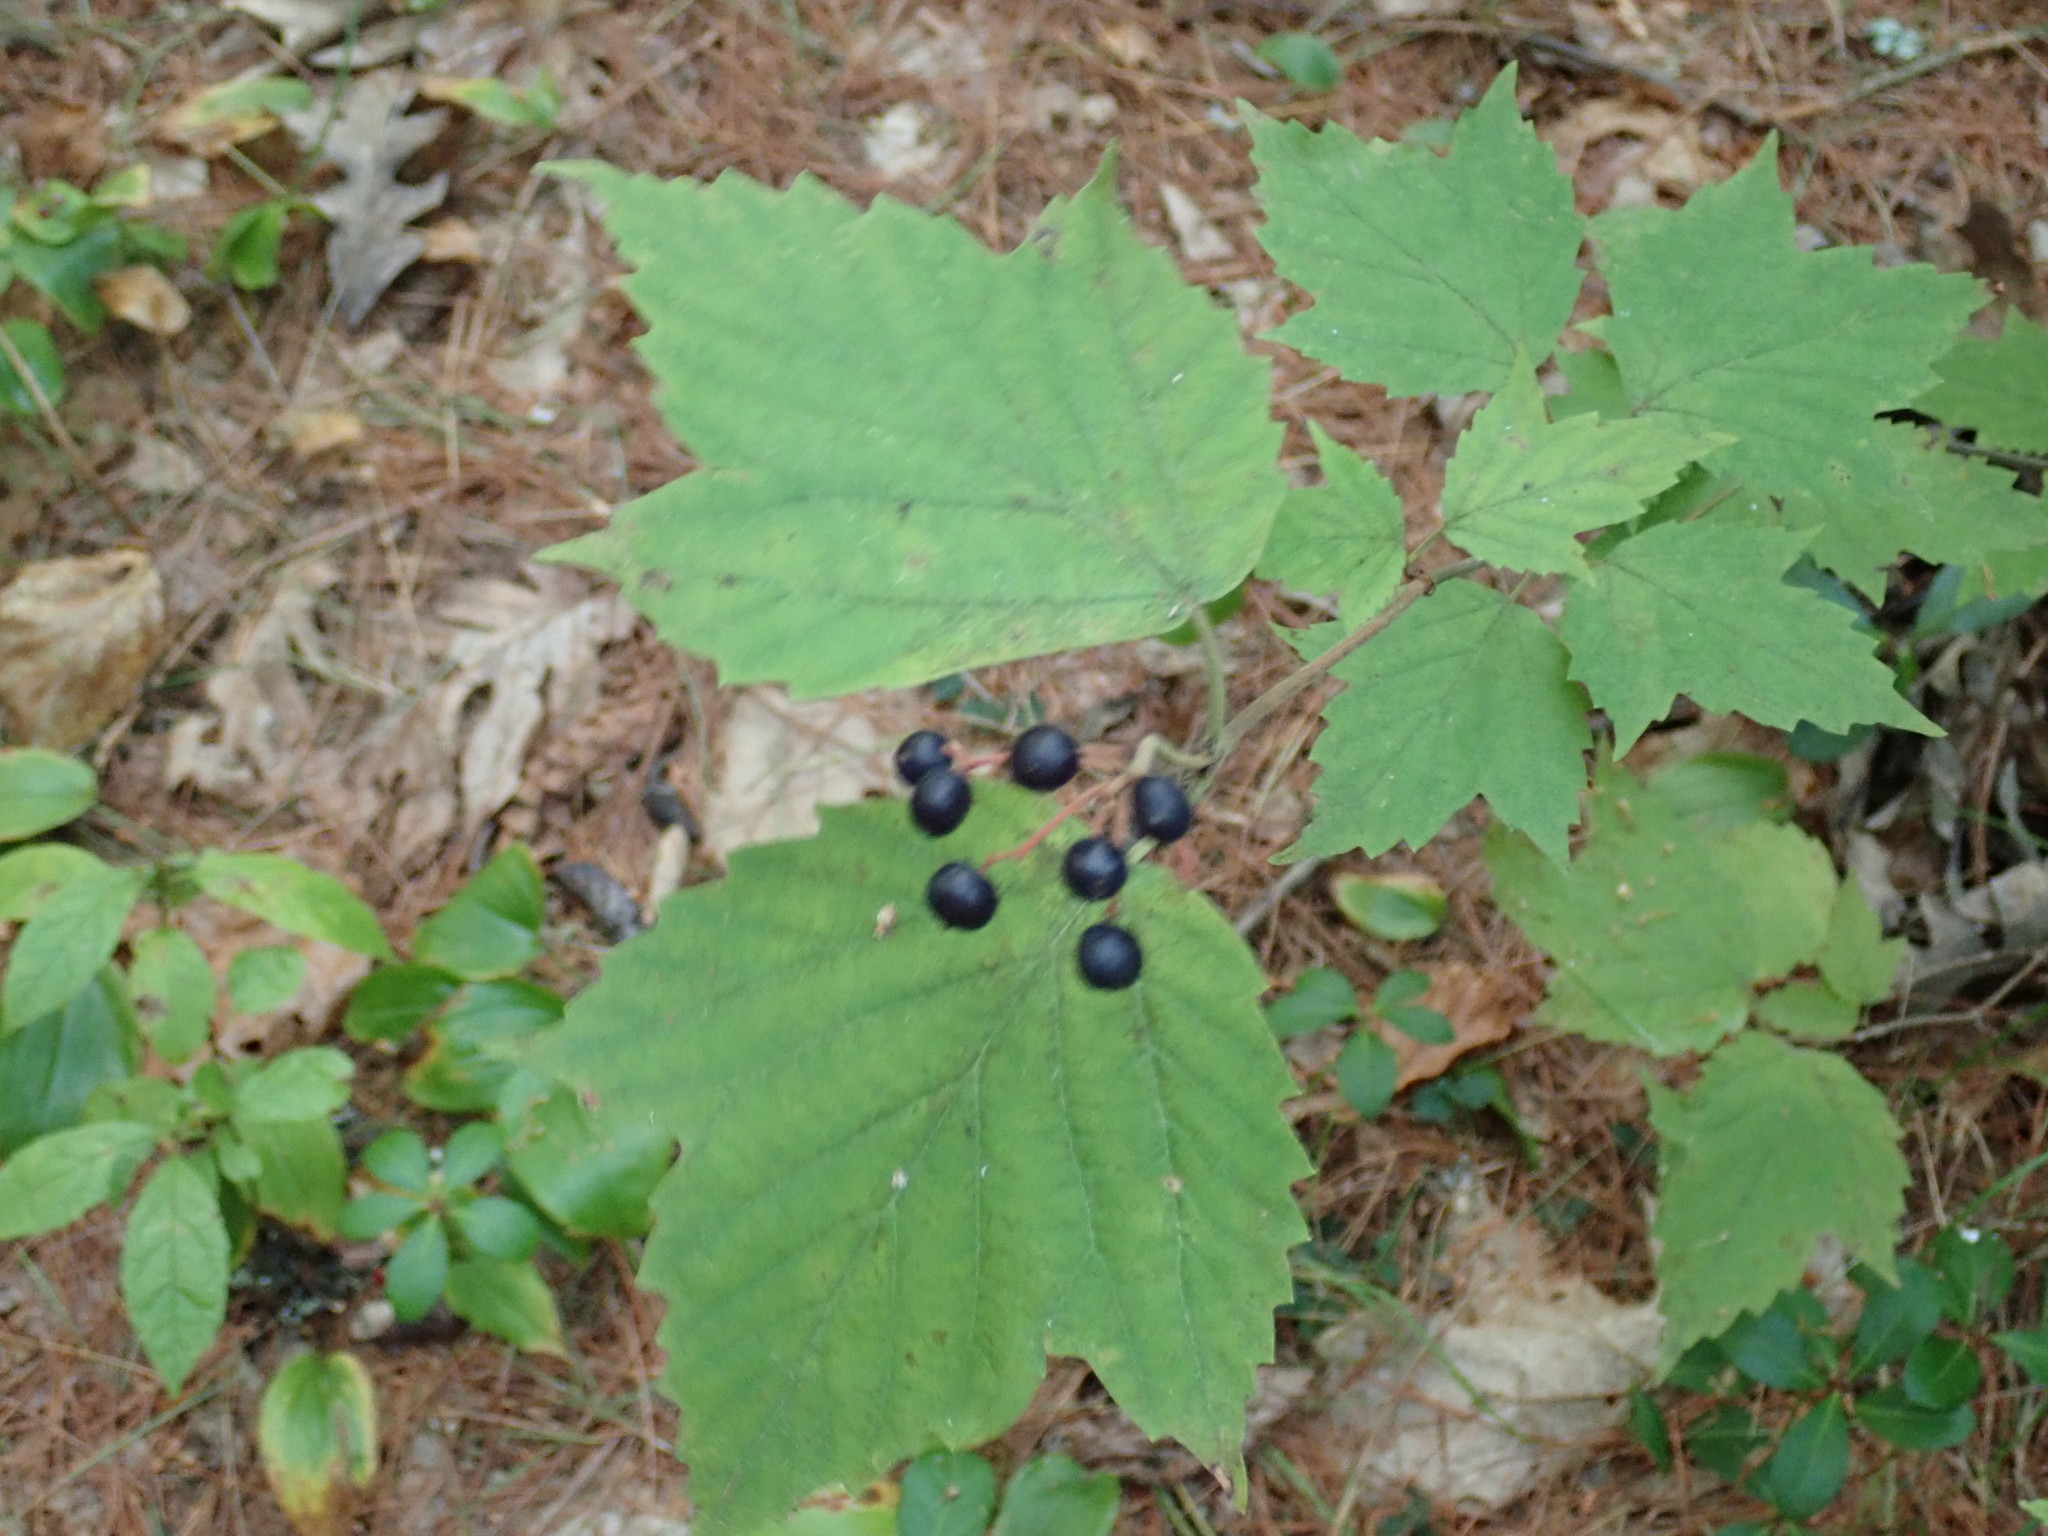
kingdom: Plantae
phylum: Tracheophyta
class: Magnoliopsida
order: Dipsacales
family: Viburnaceae
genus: Viburnum
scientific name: Viburnum acerifolium
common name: Dockmackie
